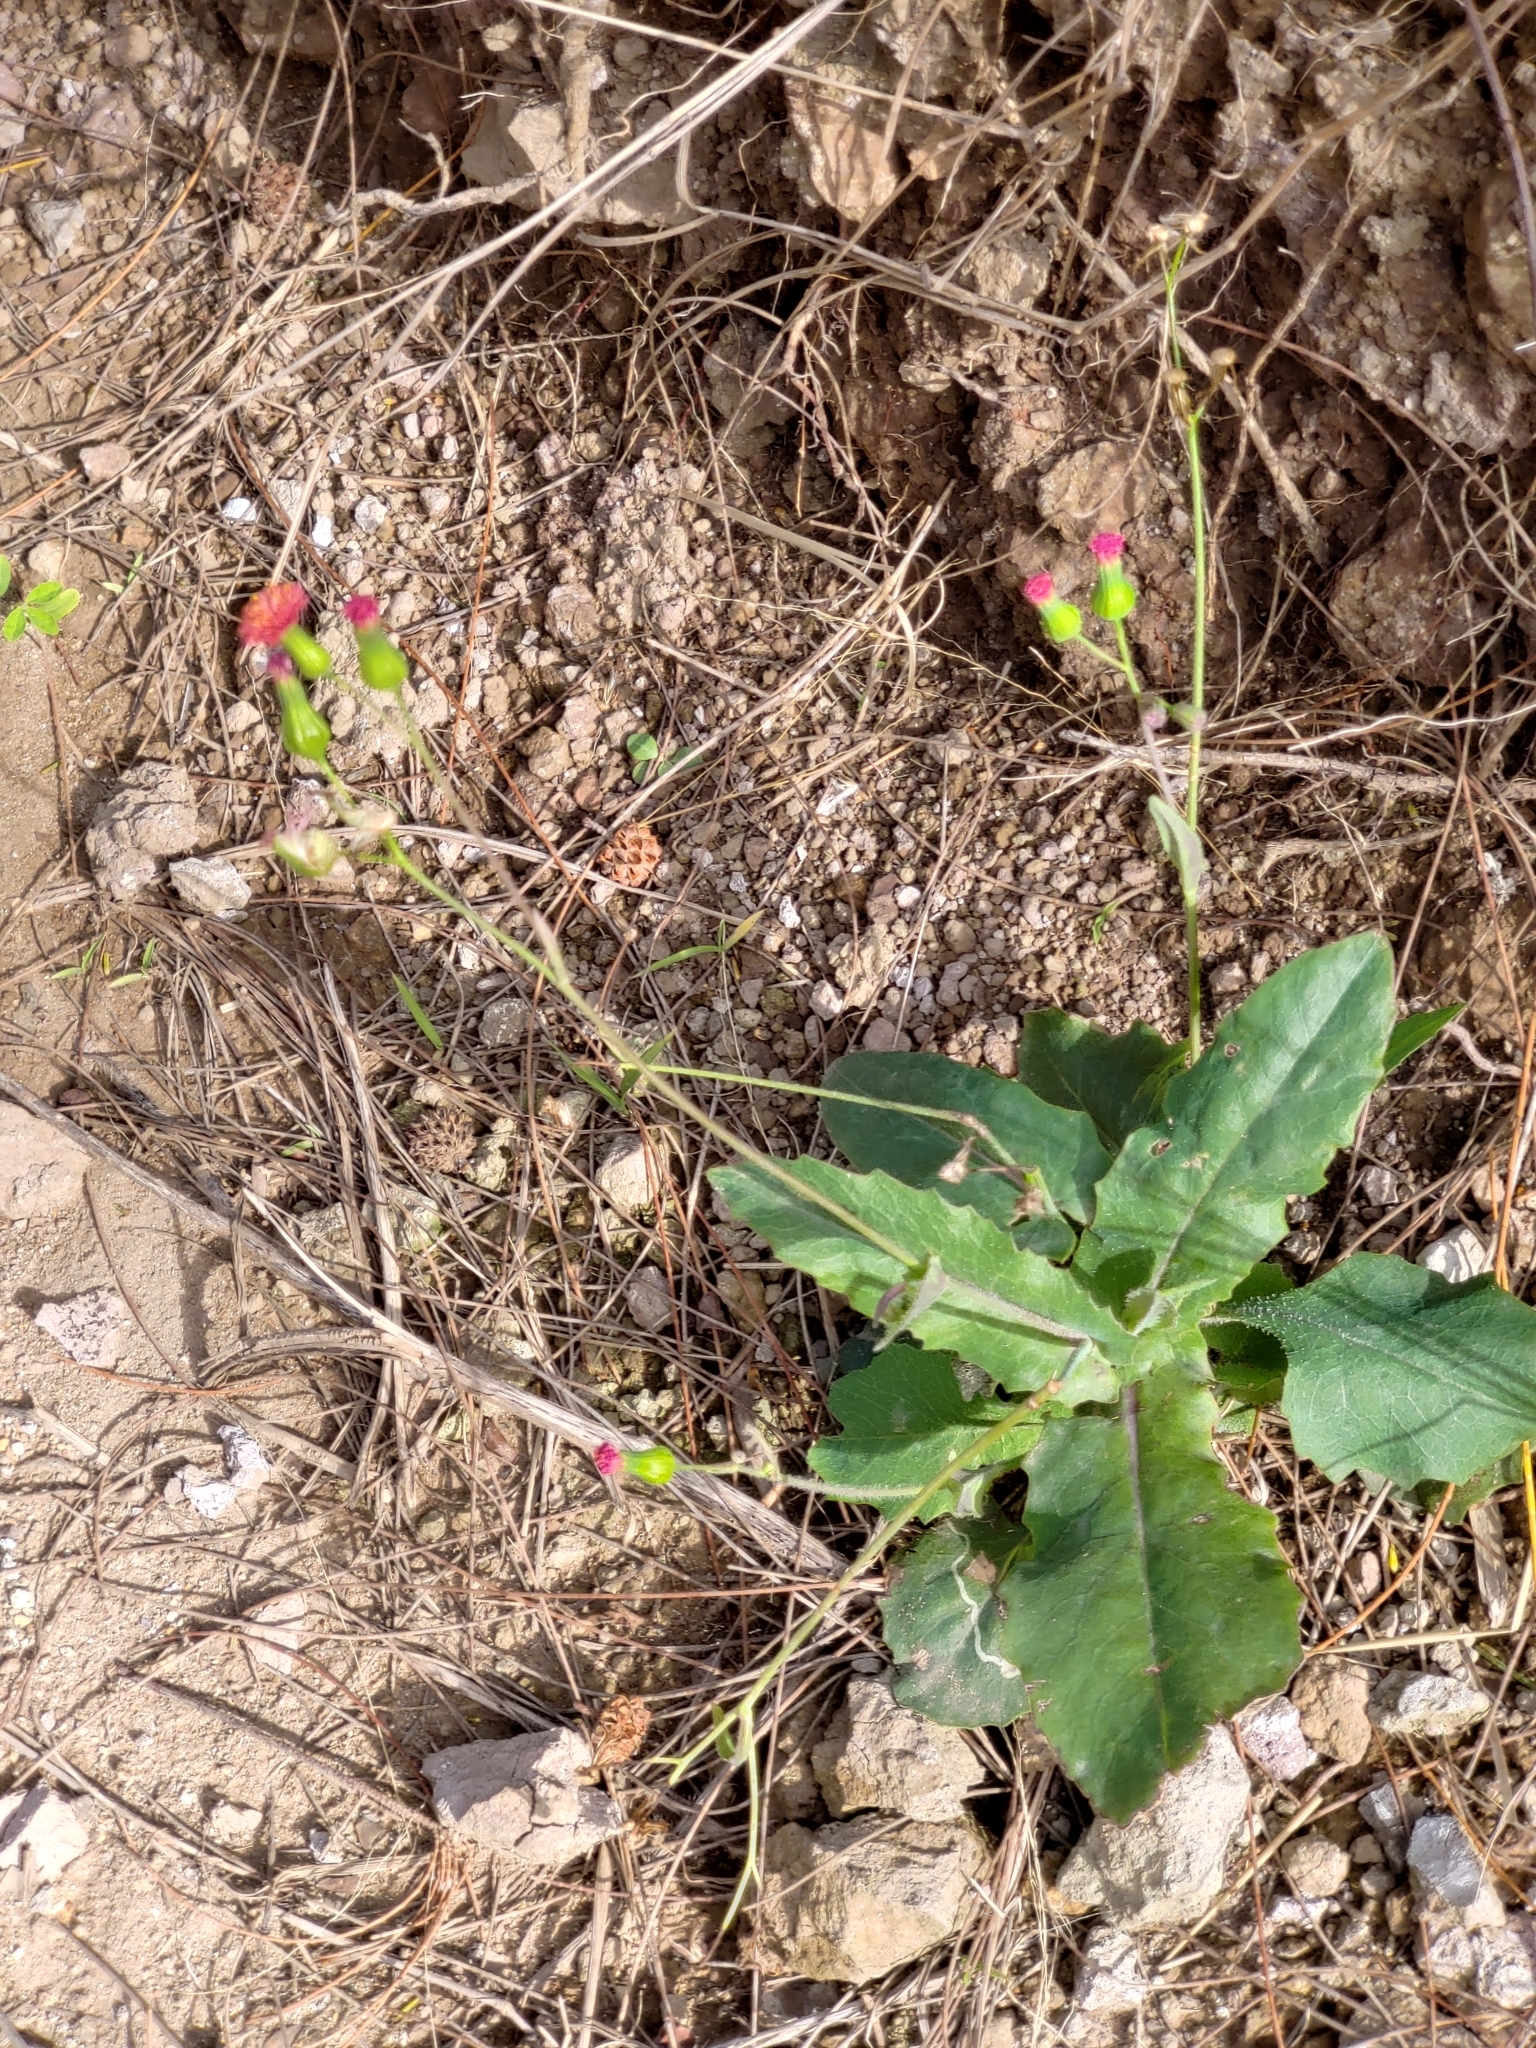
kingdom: Plantae
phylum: Tracheophyta
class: Magnoliopsida
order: Asterales
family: Asteraceae
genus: Emilia
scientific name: Emilia fosbergii
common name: Florida tasselflower
